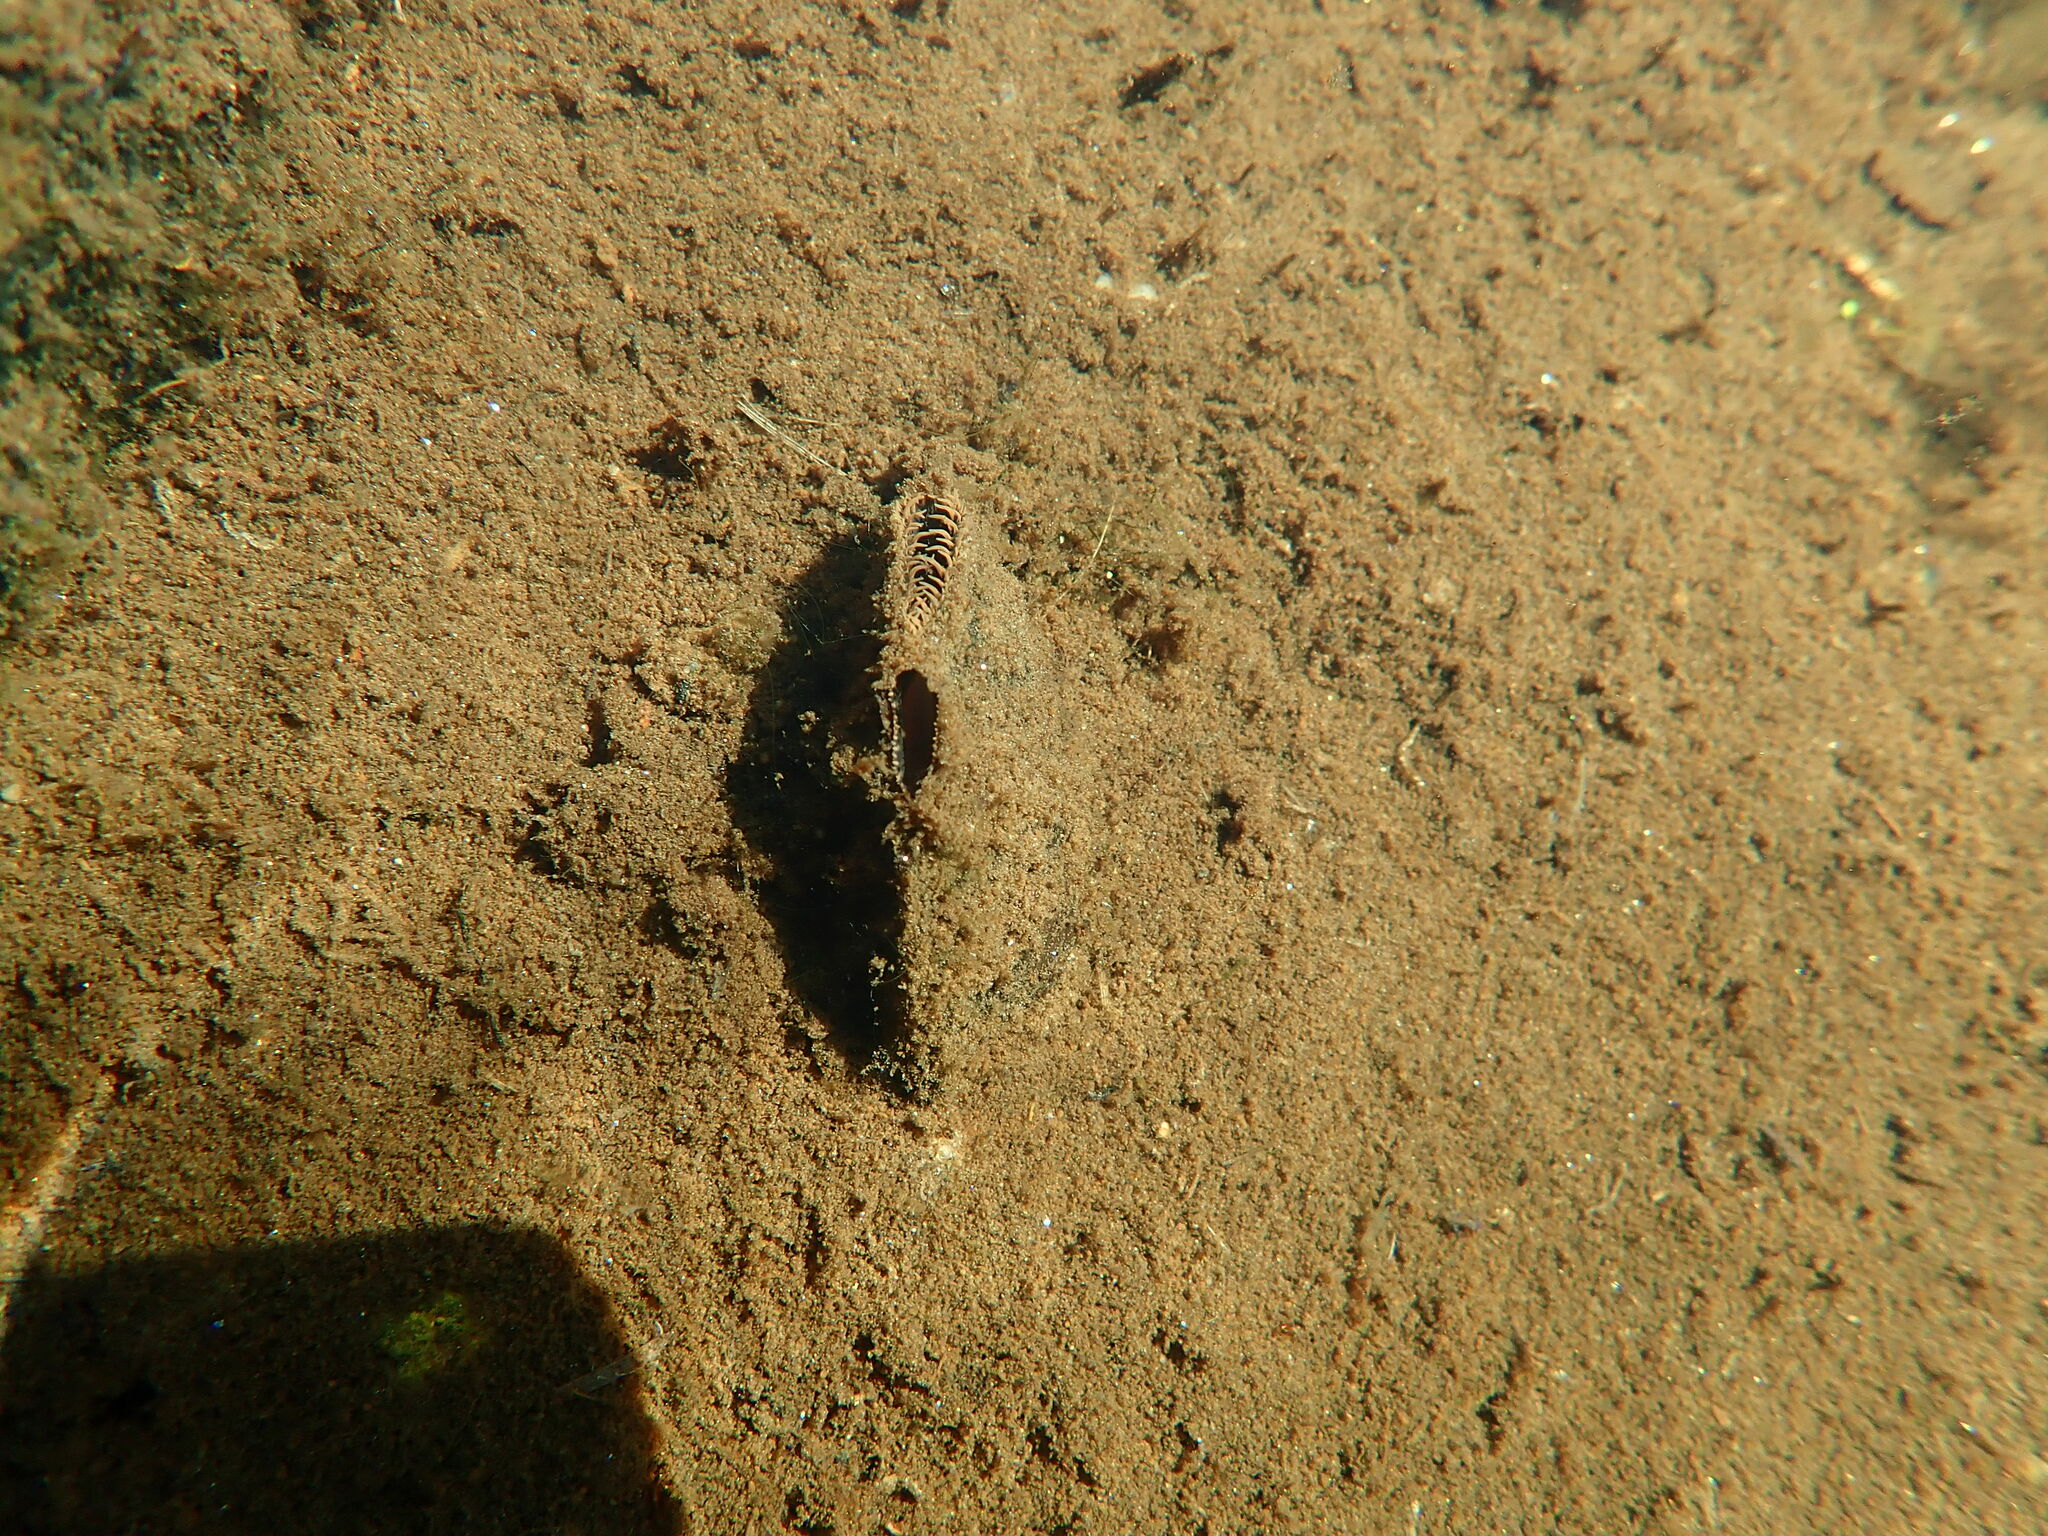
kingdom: Animalia
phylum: Mollusca
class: Bivalvia
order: Unionida
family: Unionidae
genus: Elliptio
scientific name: Elliptio complanata
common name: Eastern elliptio
